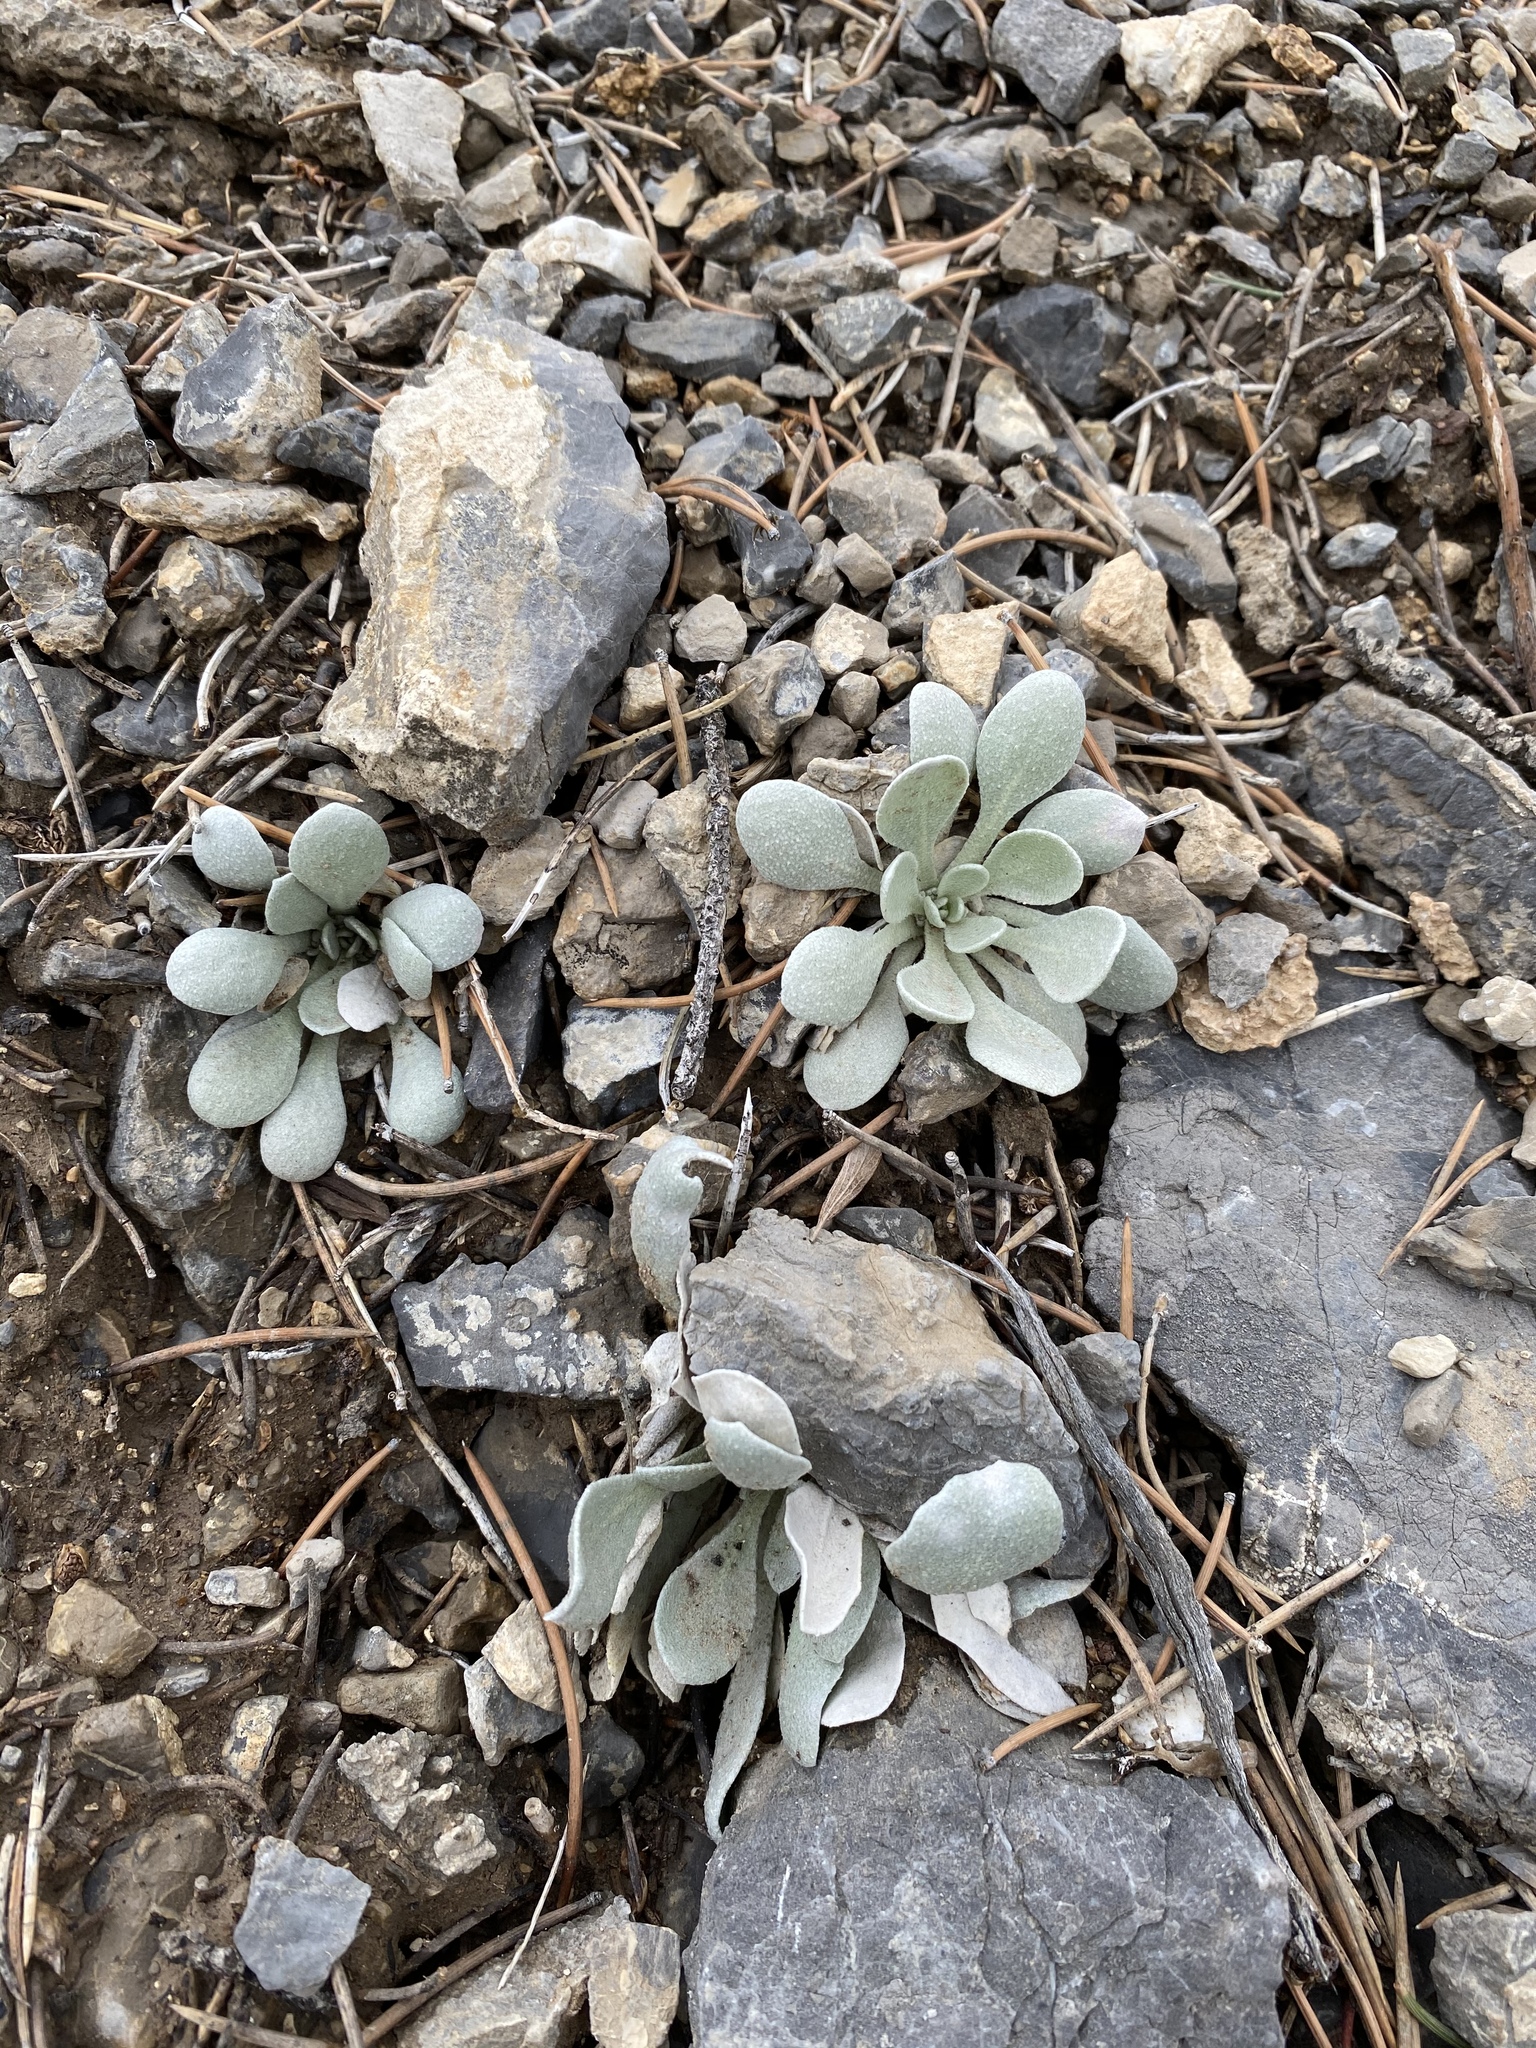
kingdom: Plantae
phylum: Tracheophyta
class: Magnoliopsida
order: Brassicales
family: Brassicaceae
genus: Physaria
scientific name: Physaria chambersii
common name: Chamber's twinpod
